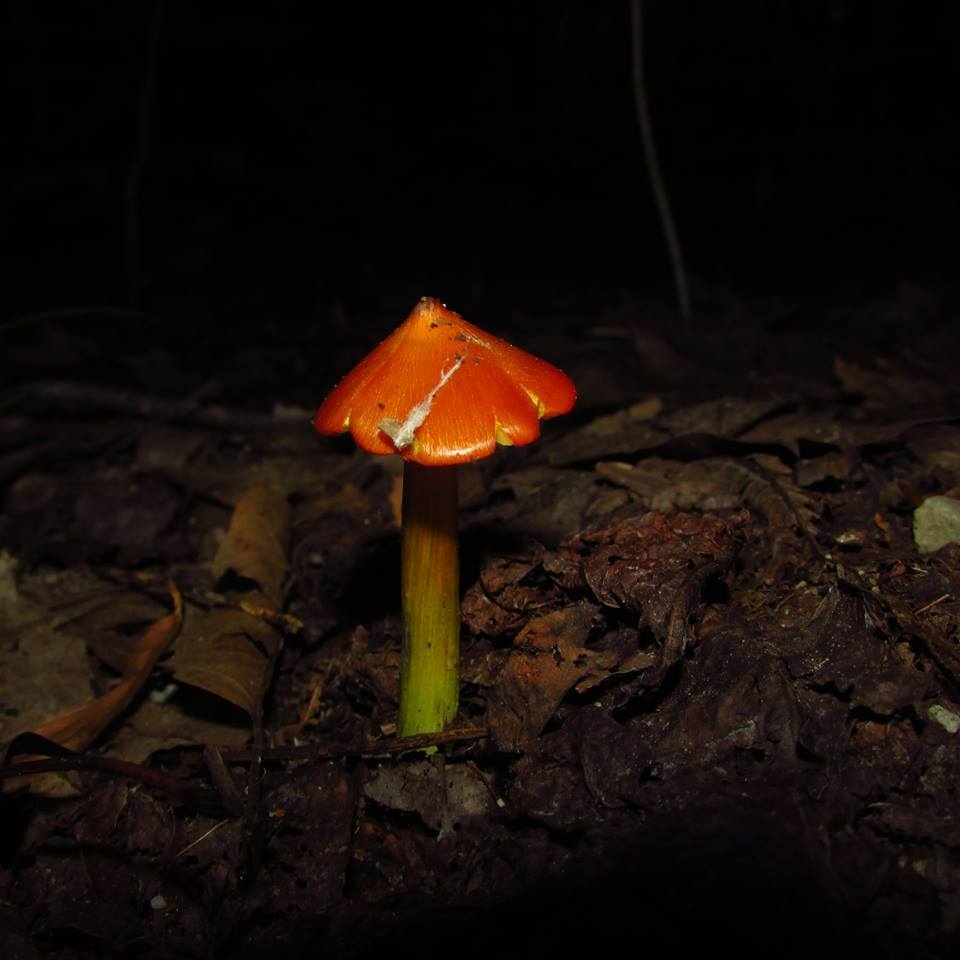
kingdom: Fungi
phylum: Basidiomycota
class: Agaricomycetes
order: Agaricales
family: Hygrophoraceae
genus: Hygrocybe
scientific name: Hygrocybe conica
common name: Blackening wax-cap
